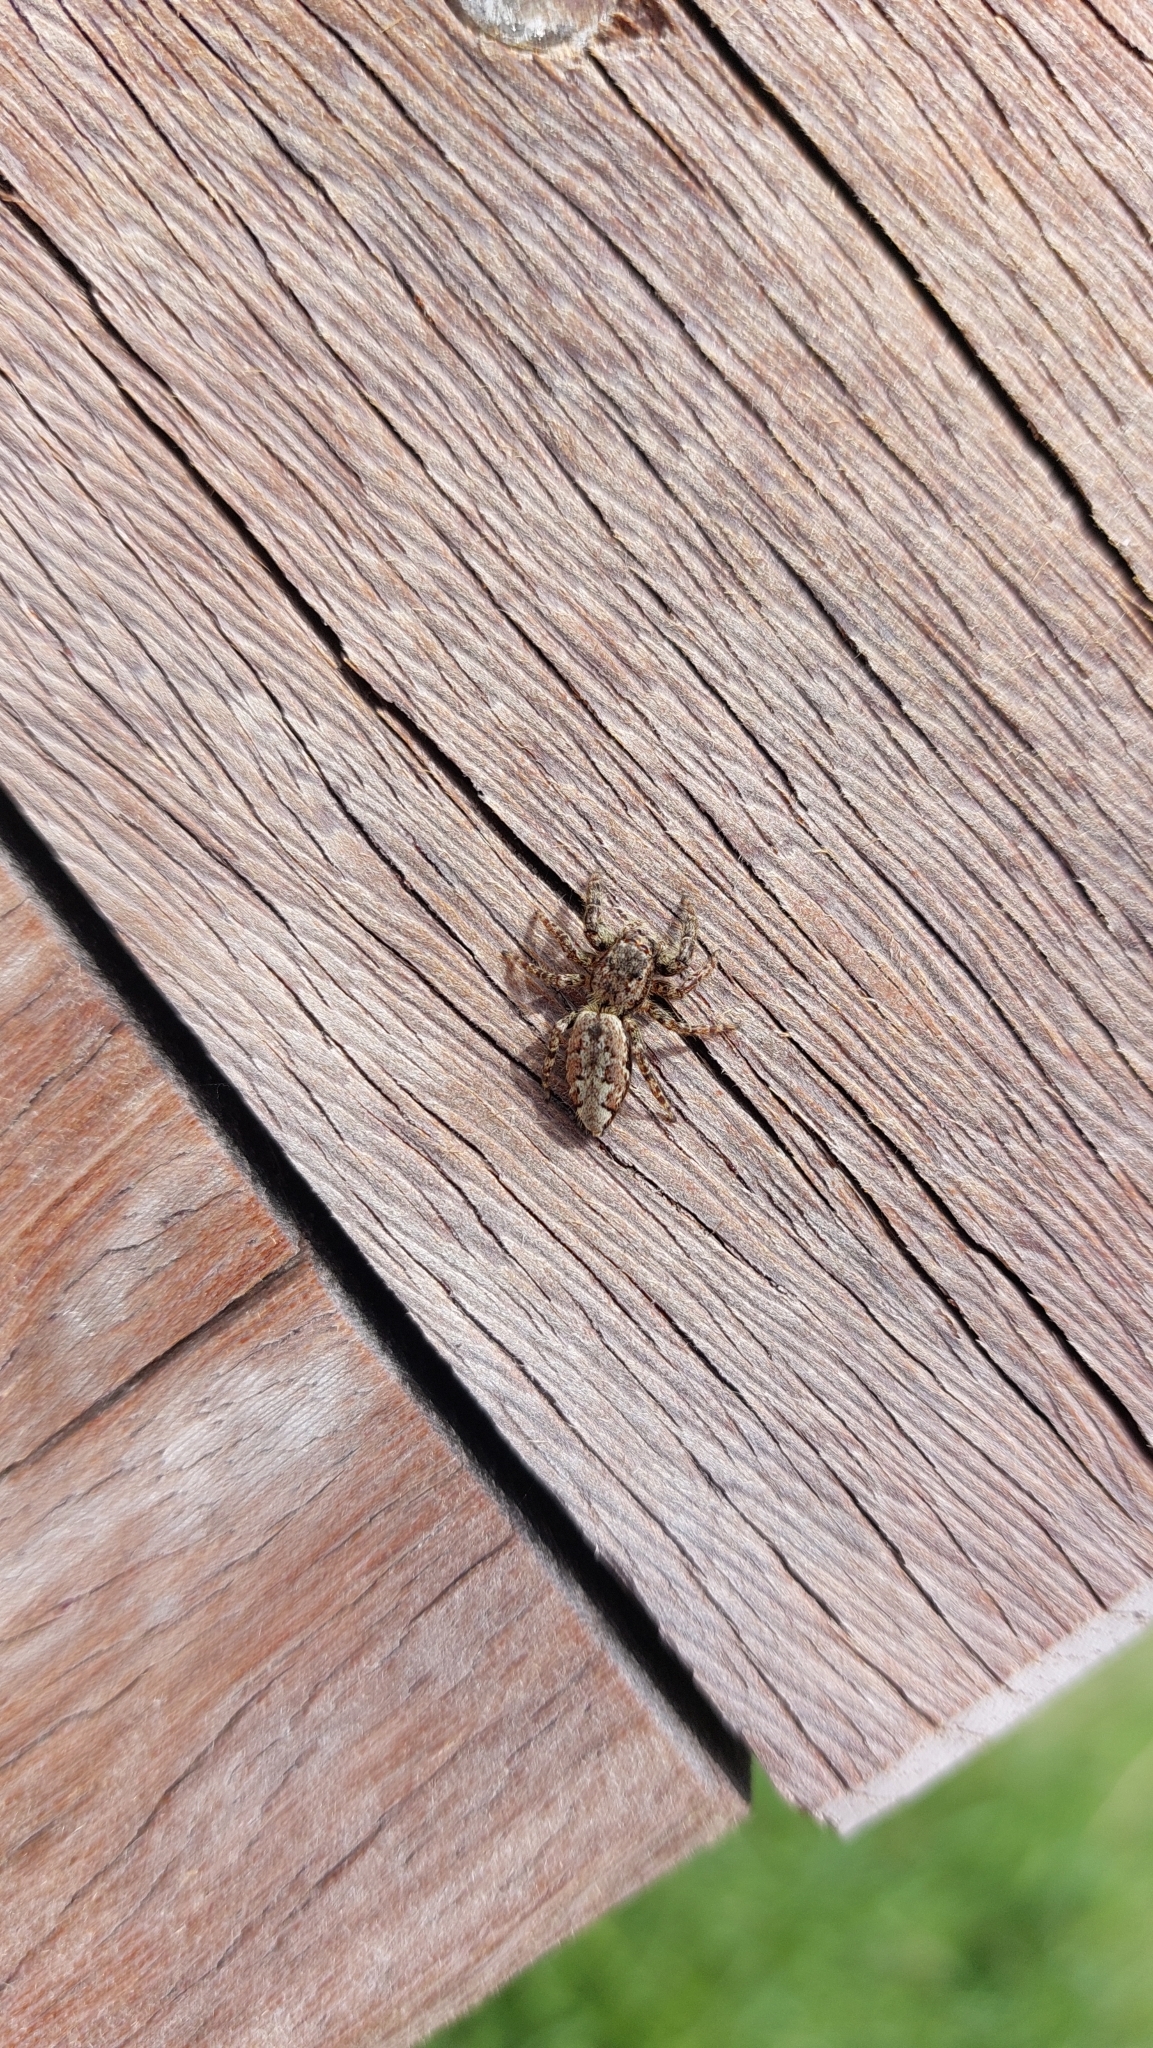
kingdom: Animalia
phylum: Arthropoda
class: Arachnida
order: Araneae
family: Salticidae
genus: Marpissa
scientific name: Marpissa muscosa
